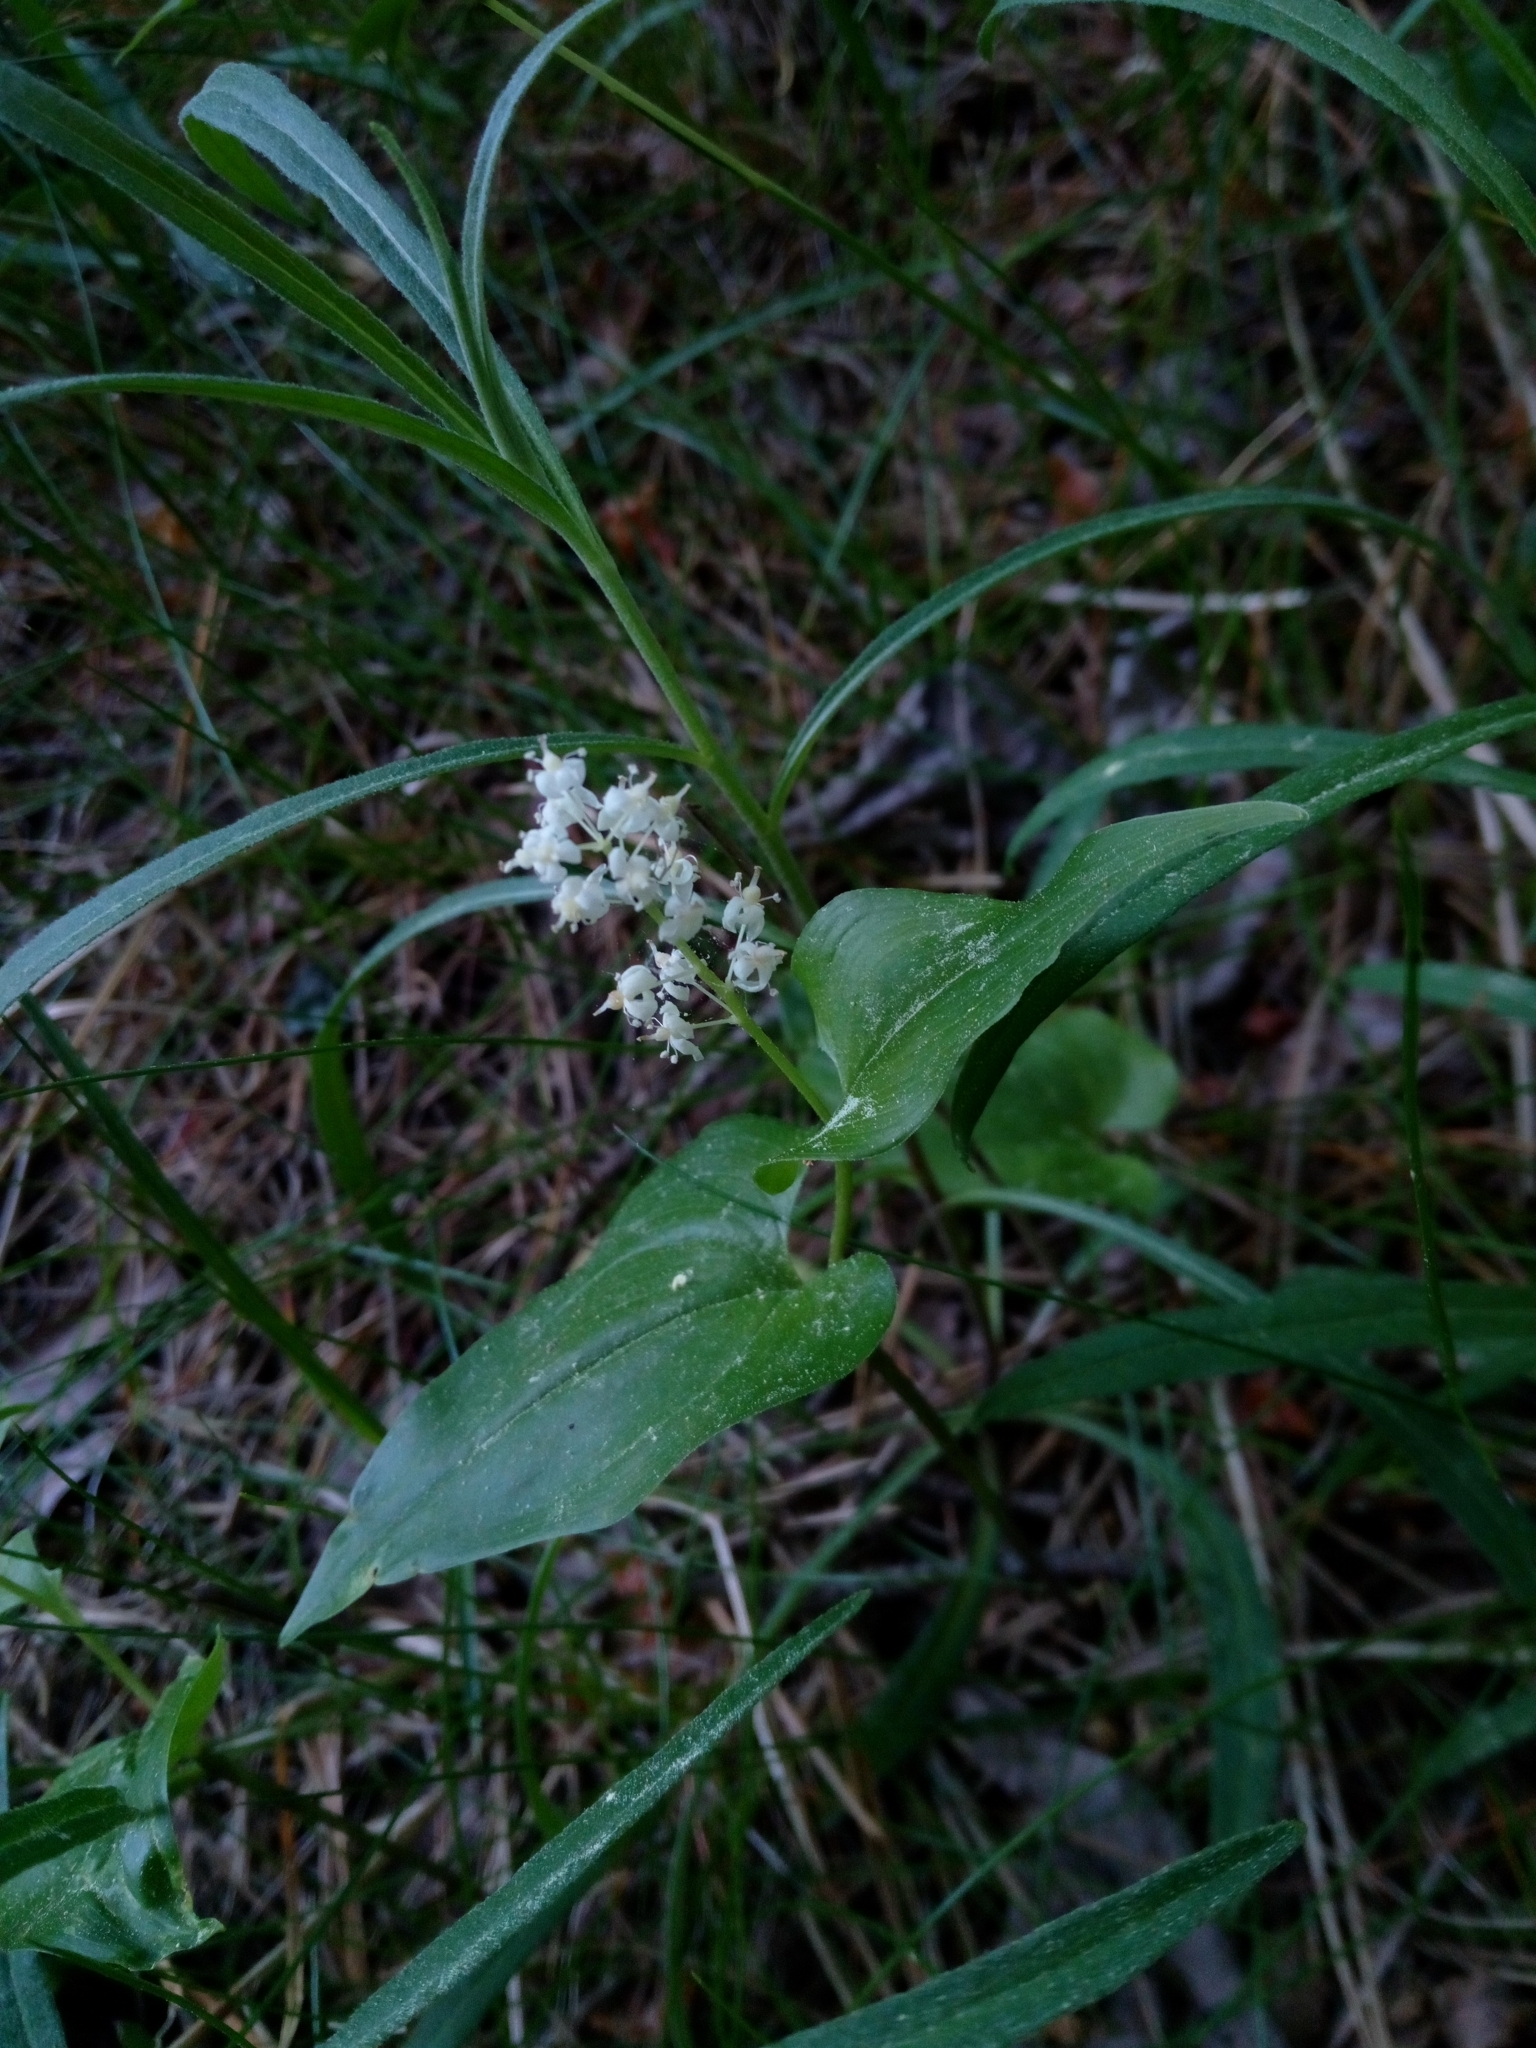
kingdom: Plantae
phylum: Tracheophyta
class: Liliopsida
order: Asparagales
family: Asparagaceae
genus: Maianthemum
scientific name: Maianthemum bifolium
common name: May lily
